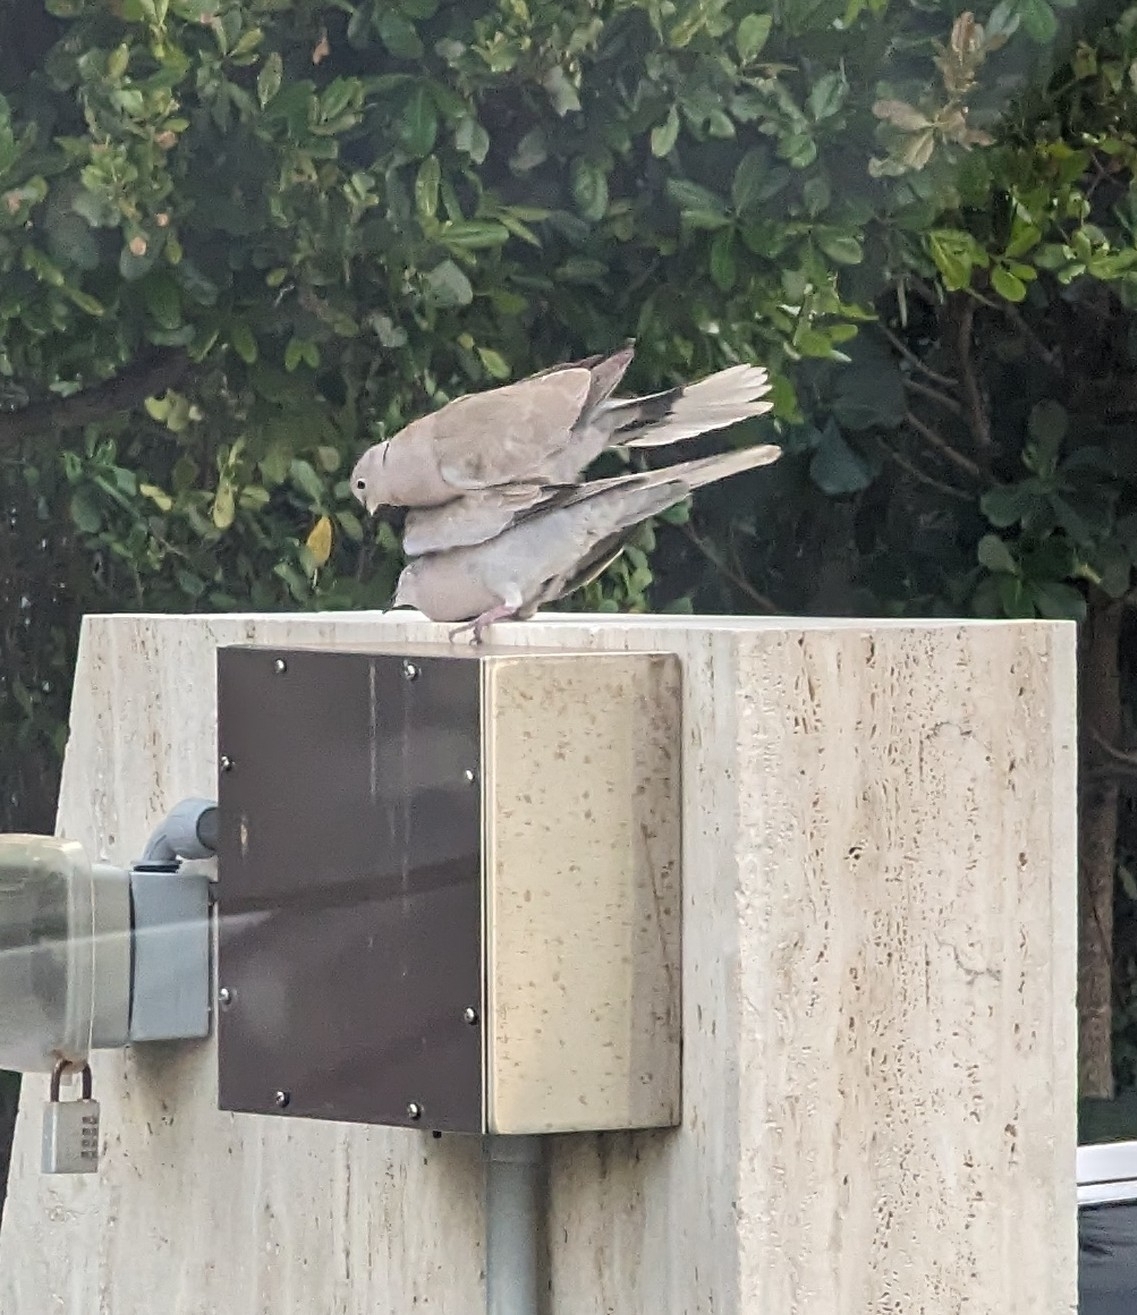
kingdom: Animalia
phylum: Chordata
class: Aves
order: Columbiformes
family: Columbidae
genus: Streptopelia
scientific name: Streptopelia decaocto
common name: Eurasian collared dove
